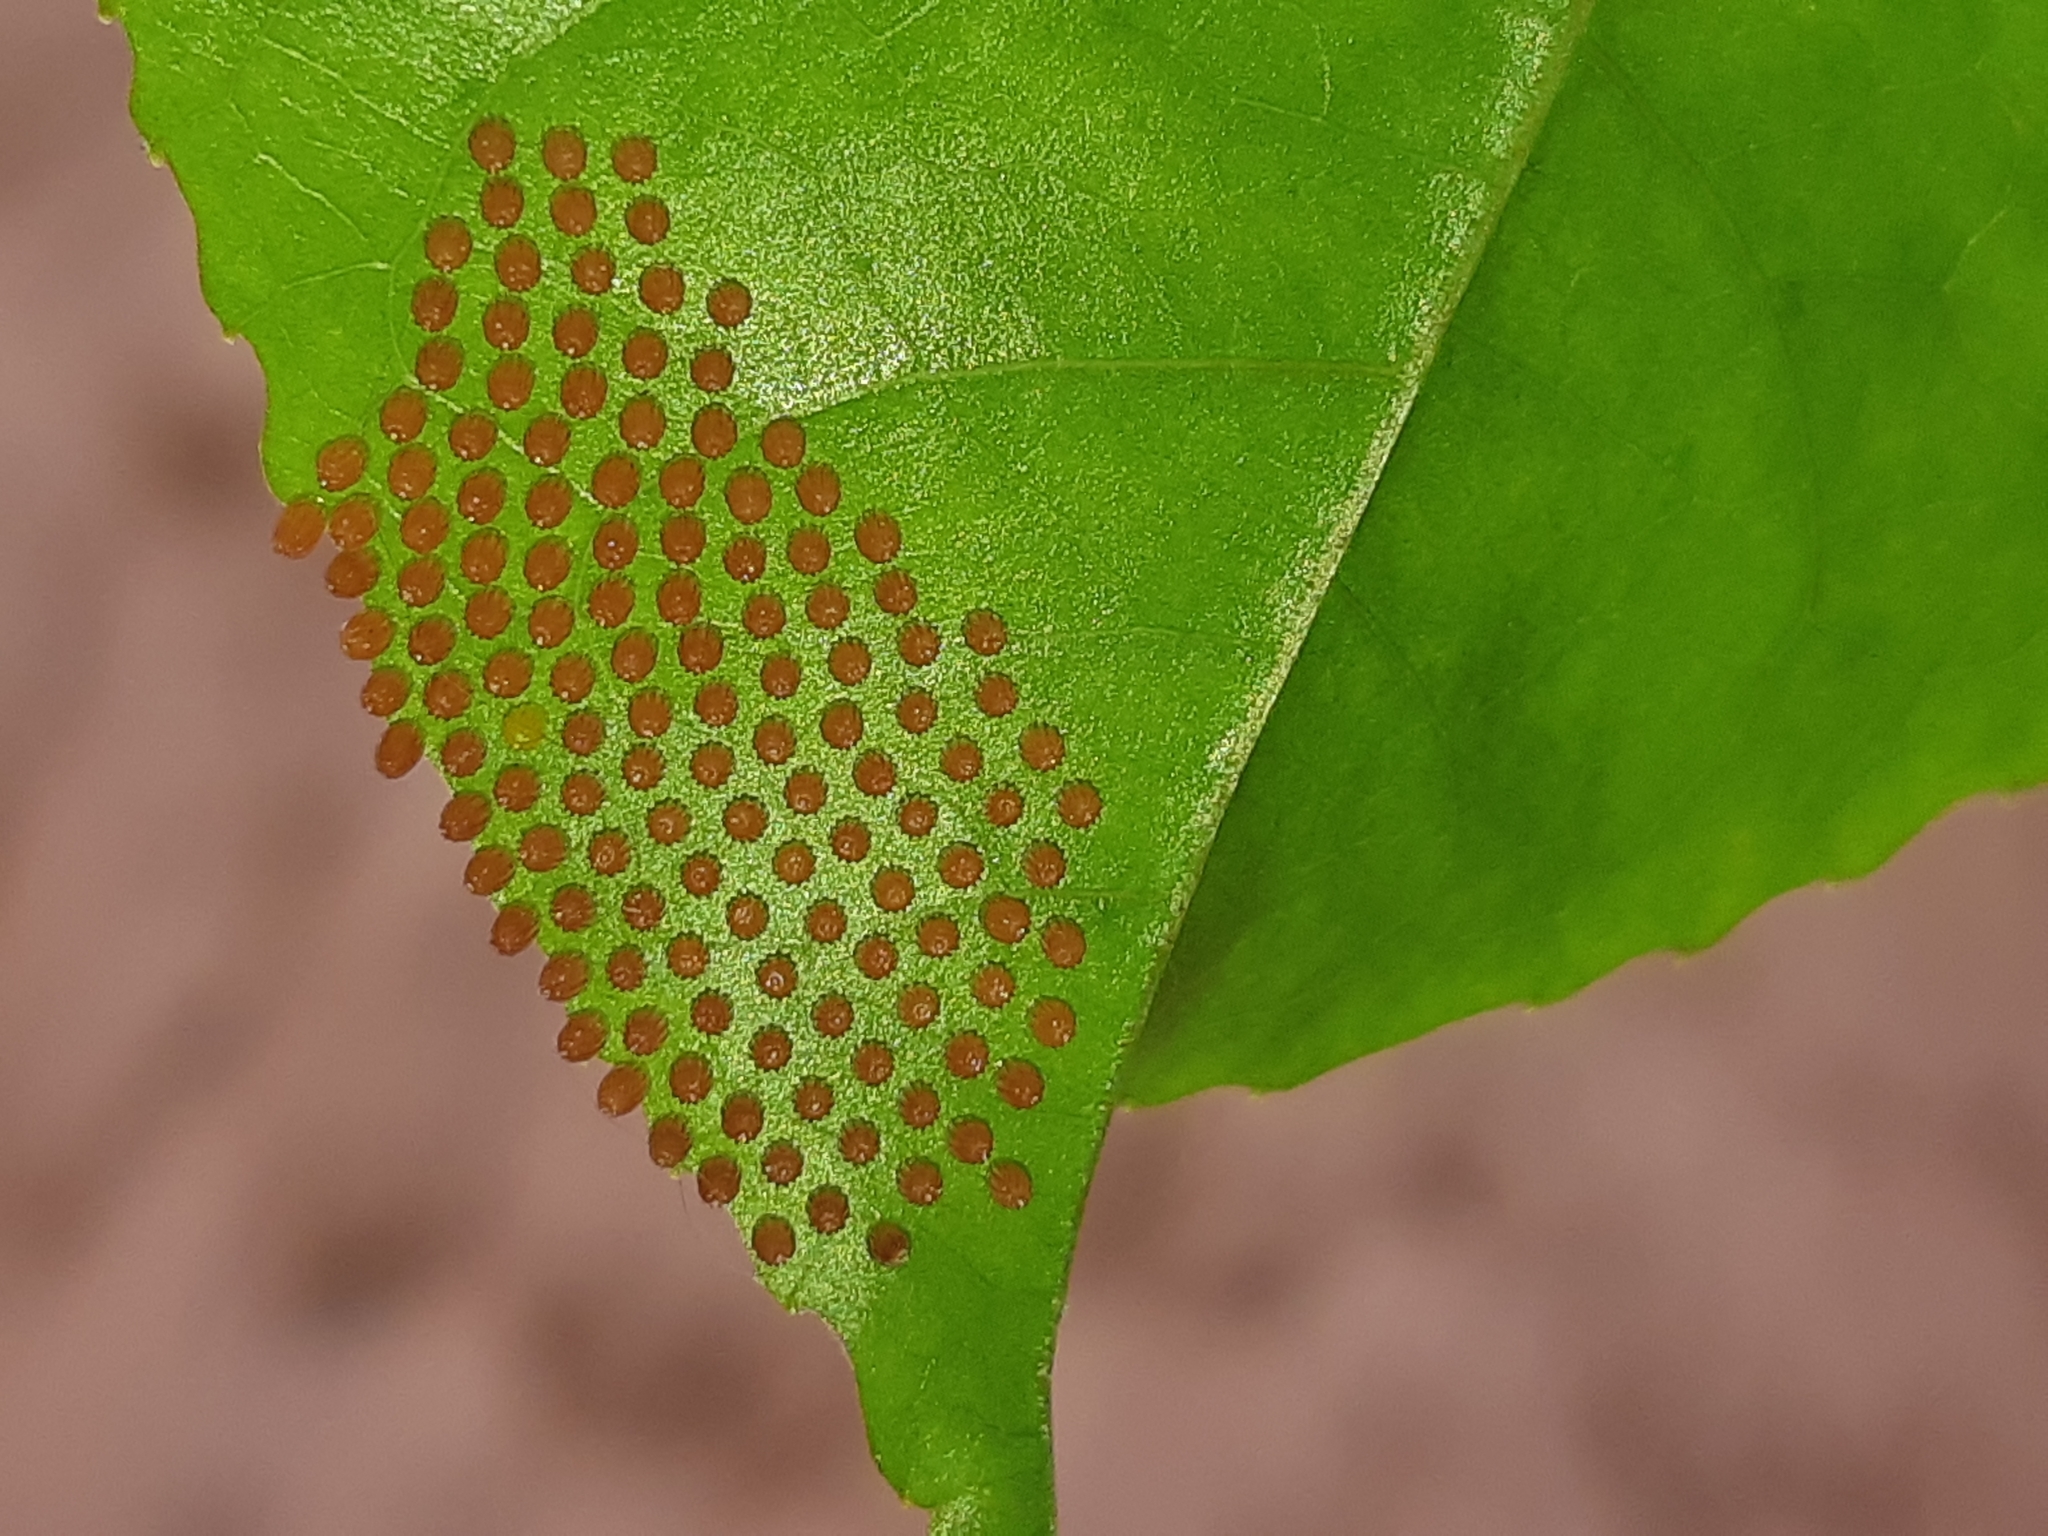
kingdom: Animalia
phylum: Arthropoda
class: Insecta
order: Lepidoptera
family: Nymphalidae
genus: Dione
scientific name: Dione juno
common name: Juno silverspot
